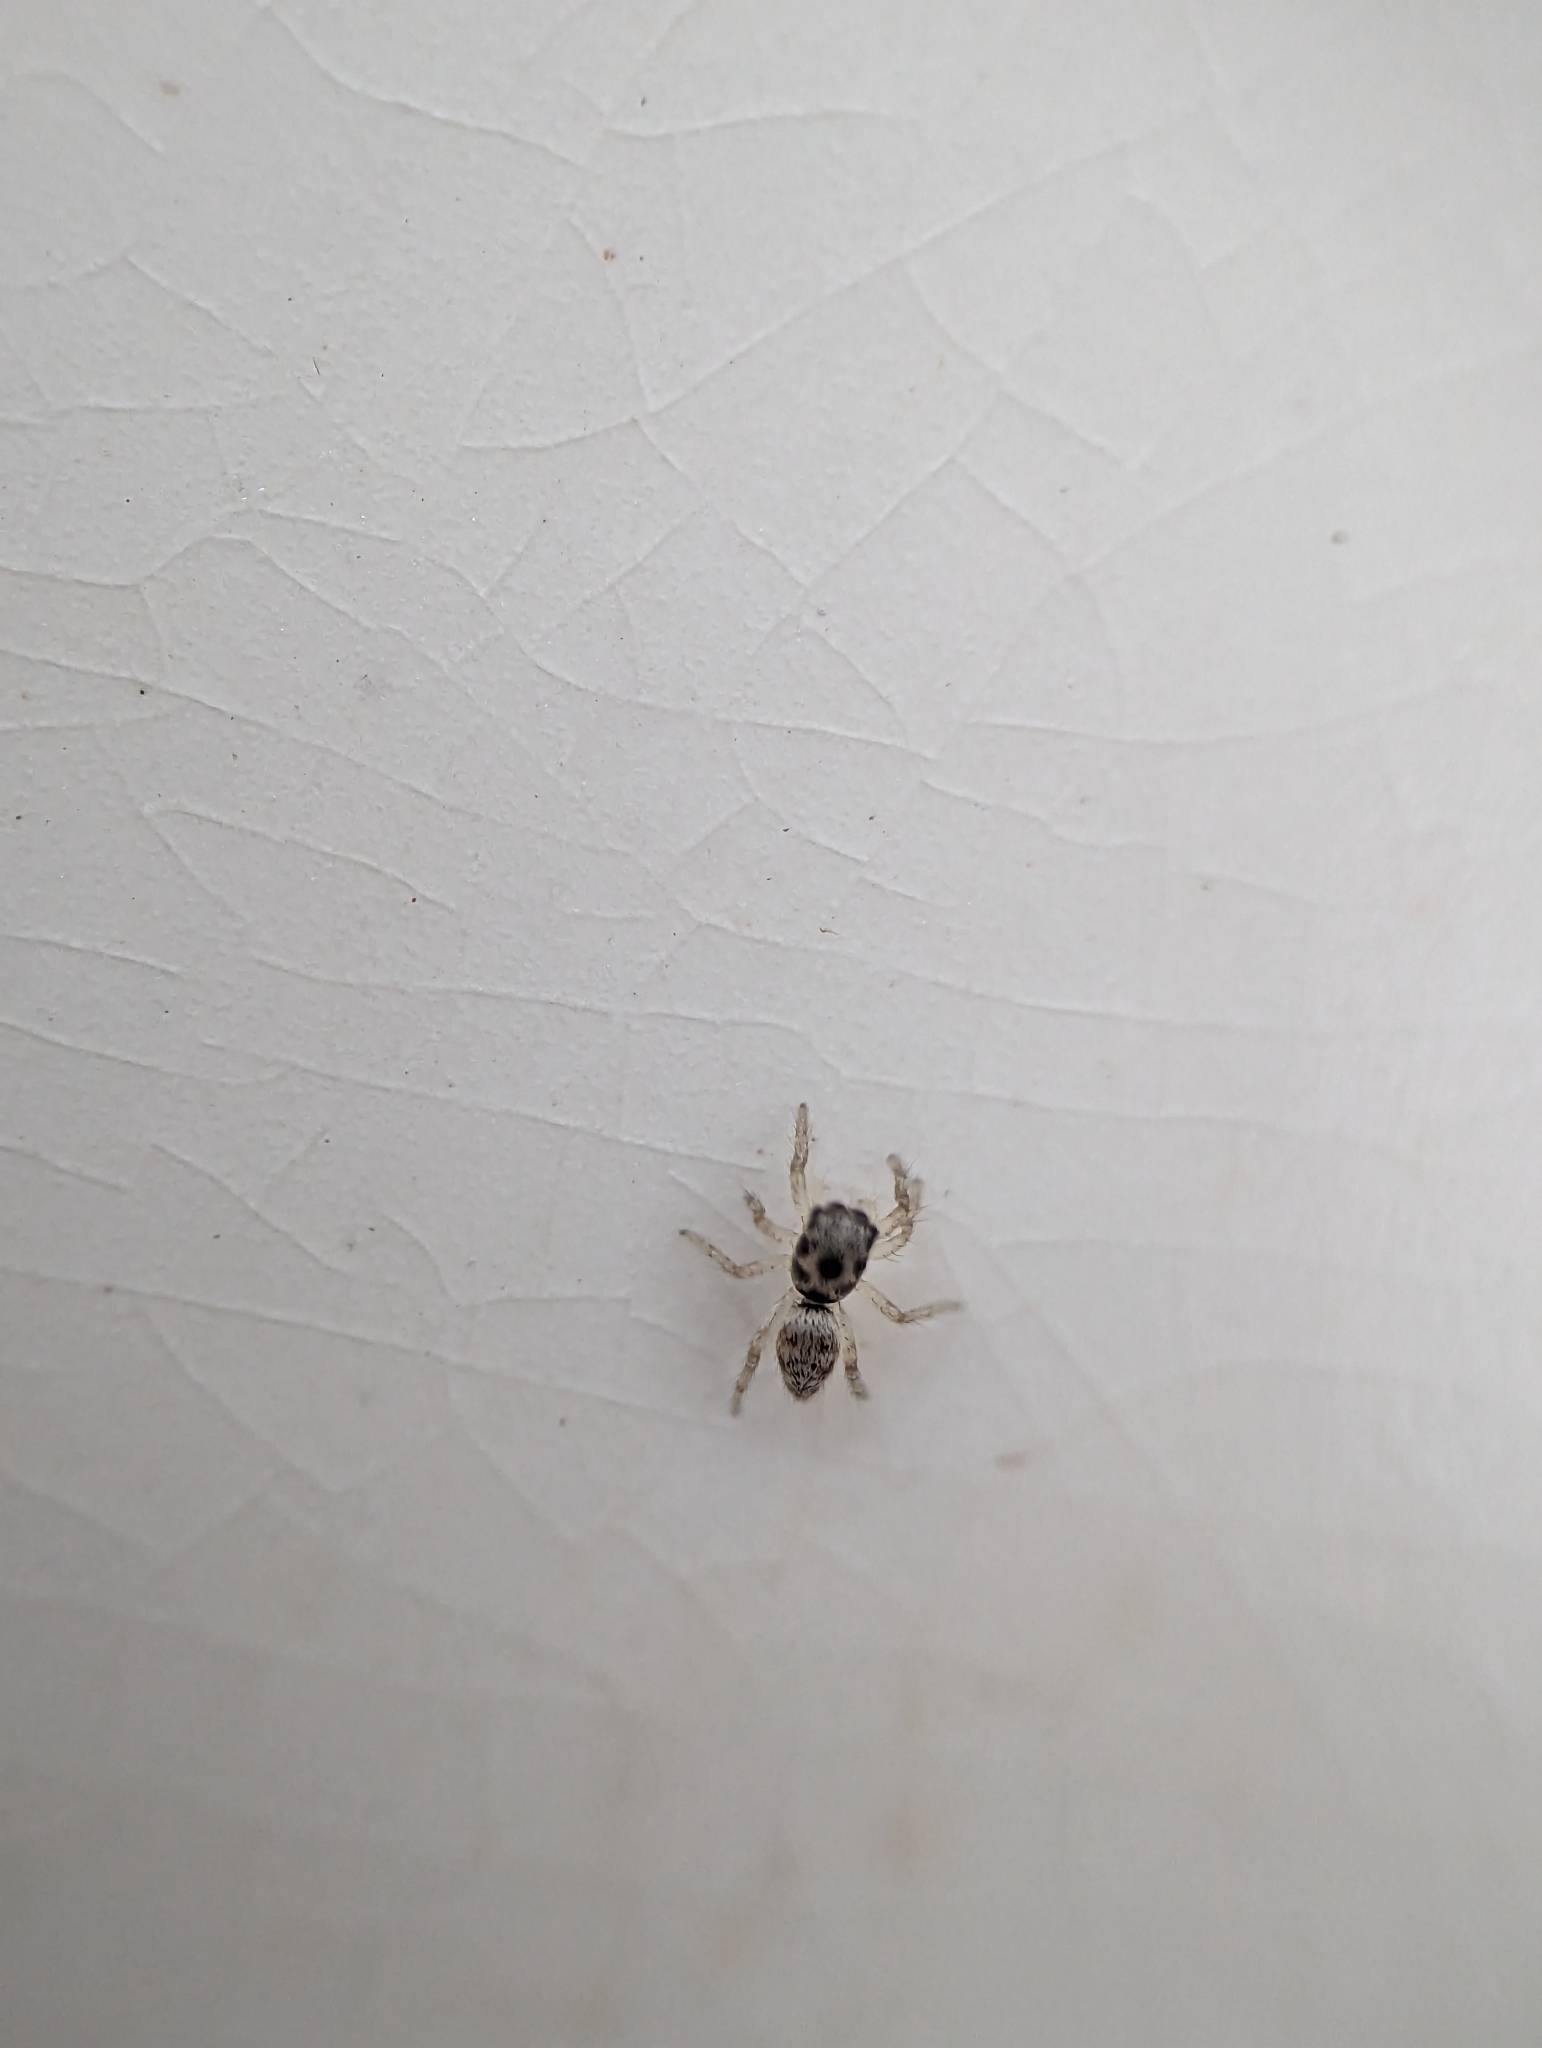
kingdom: Animalia
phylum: Arthropoda
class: Arachnida
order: Araneae
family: Salticidae
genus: Salticus
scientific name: Salticus scenicus
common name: Zebra jumper
